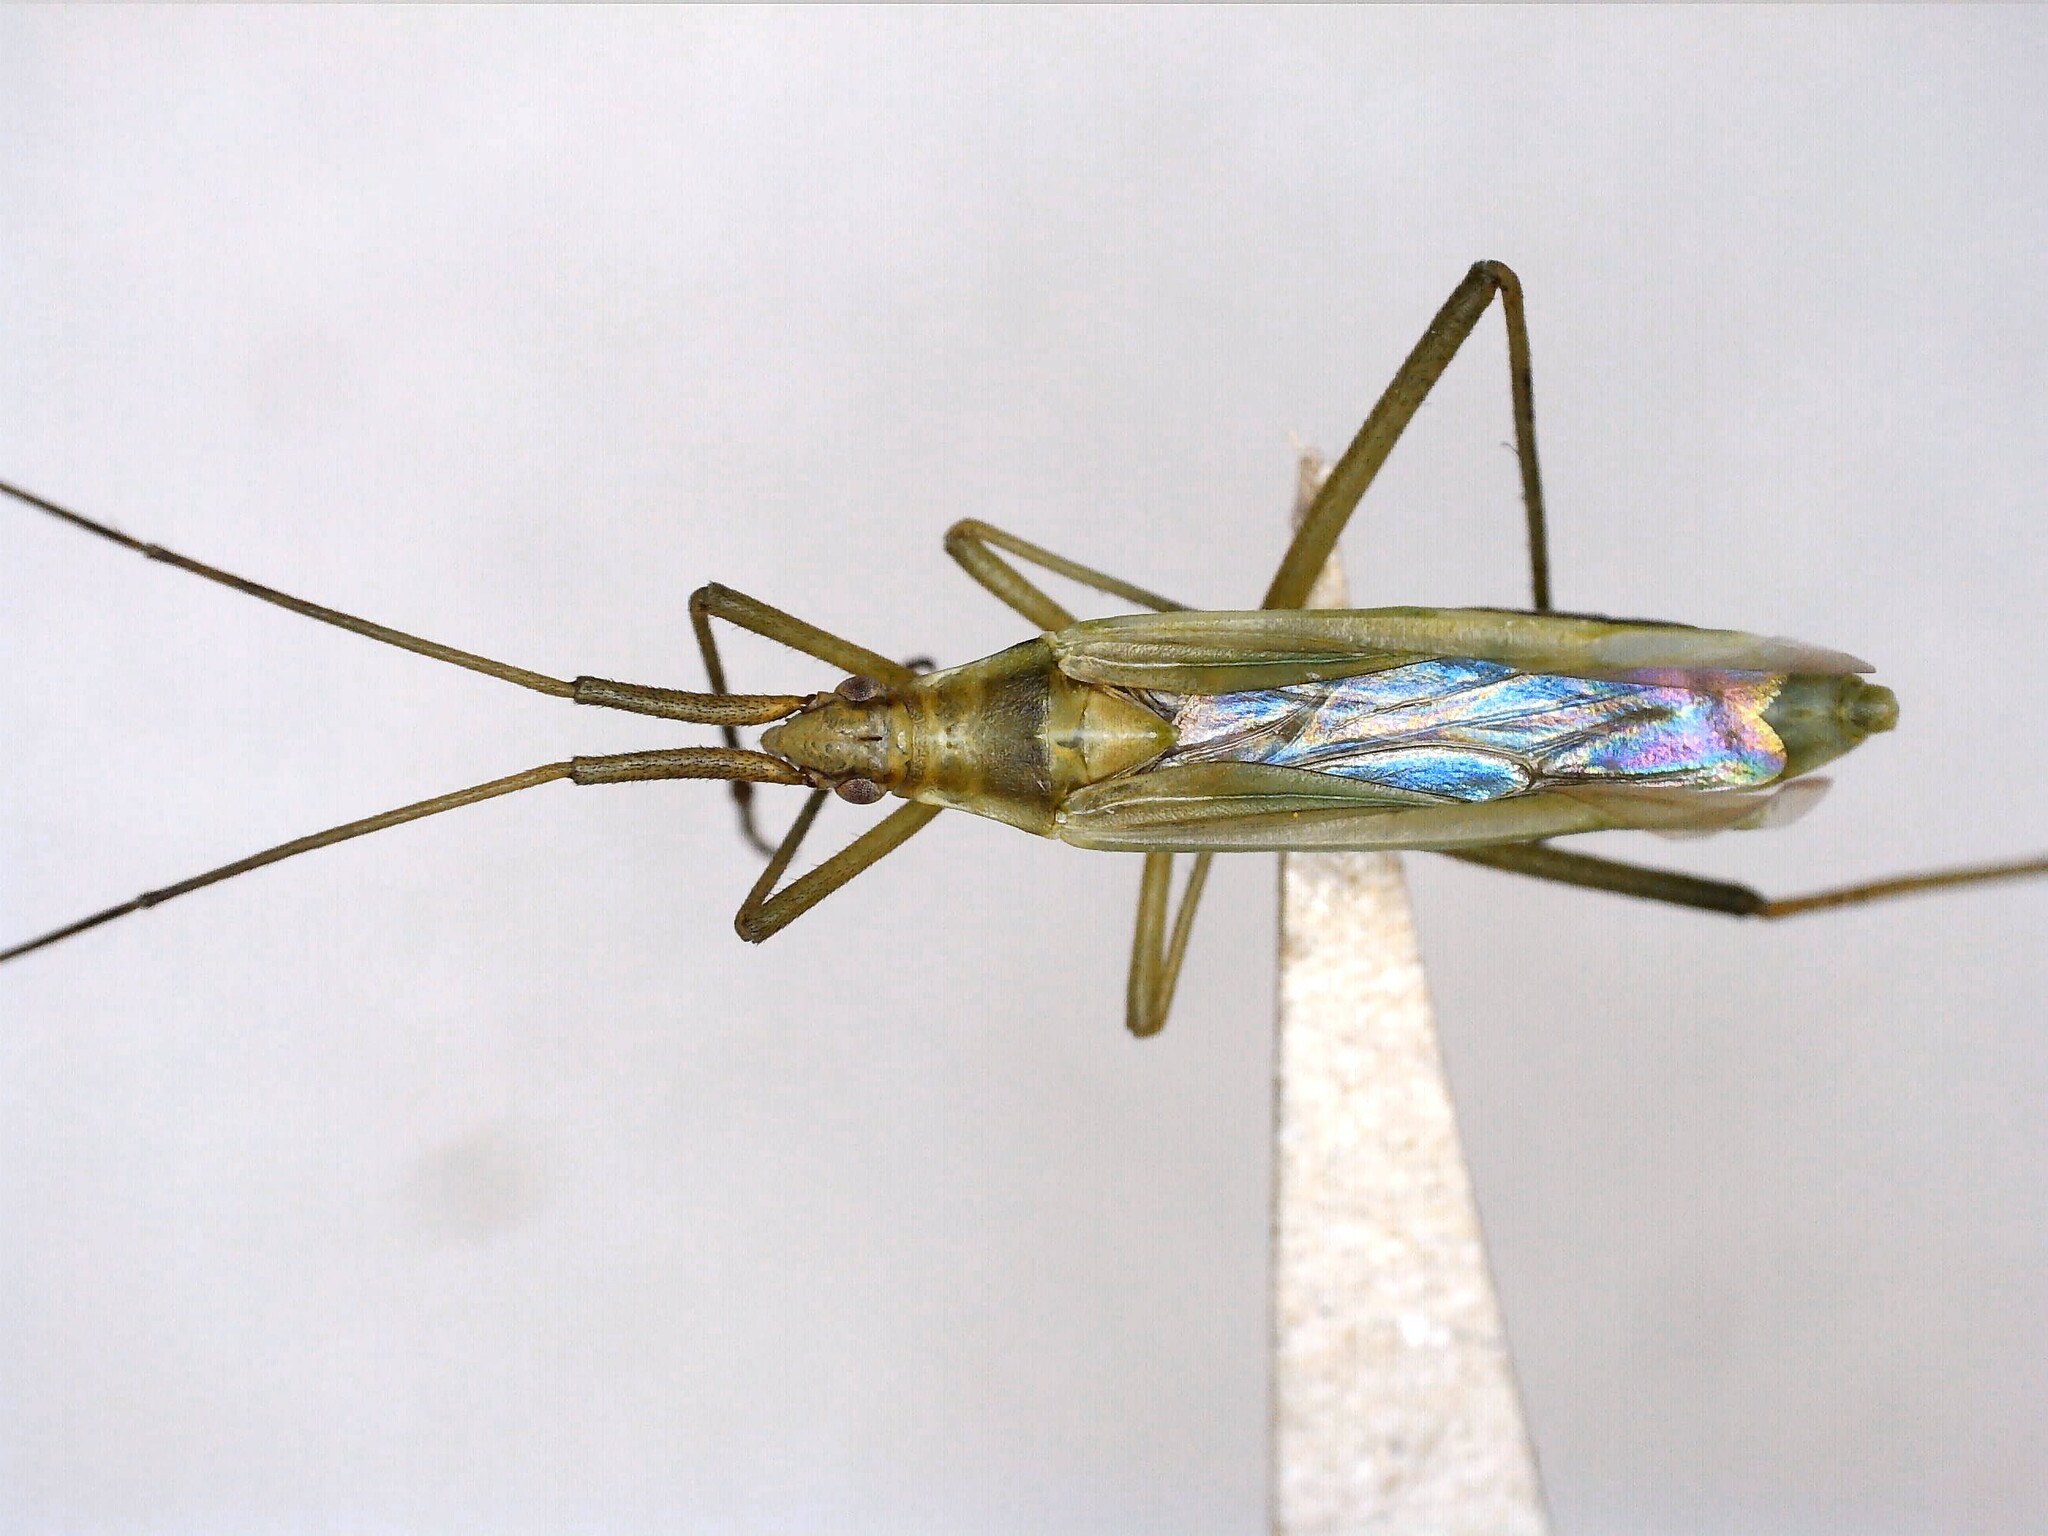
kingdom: Animalia
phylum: Arthropoda
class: Insecta
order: Hemiptera
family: Miridae
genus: Megaloceroea
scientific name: Megaloceroea recticornis
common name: Plant bug
